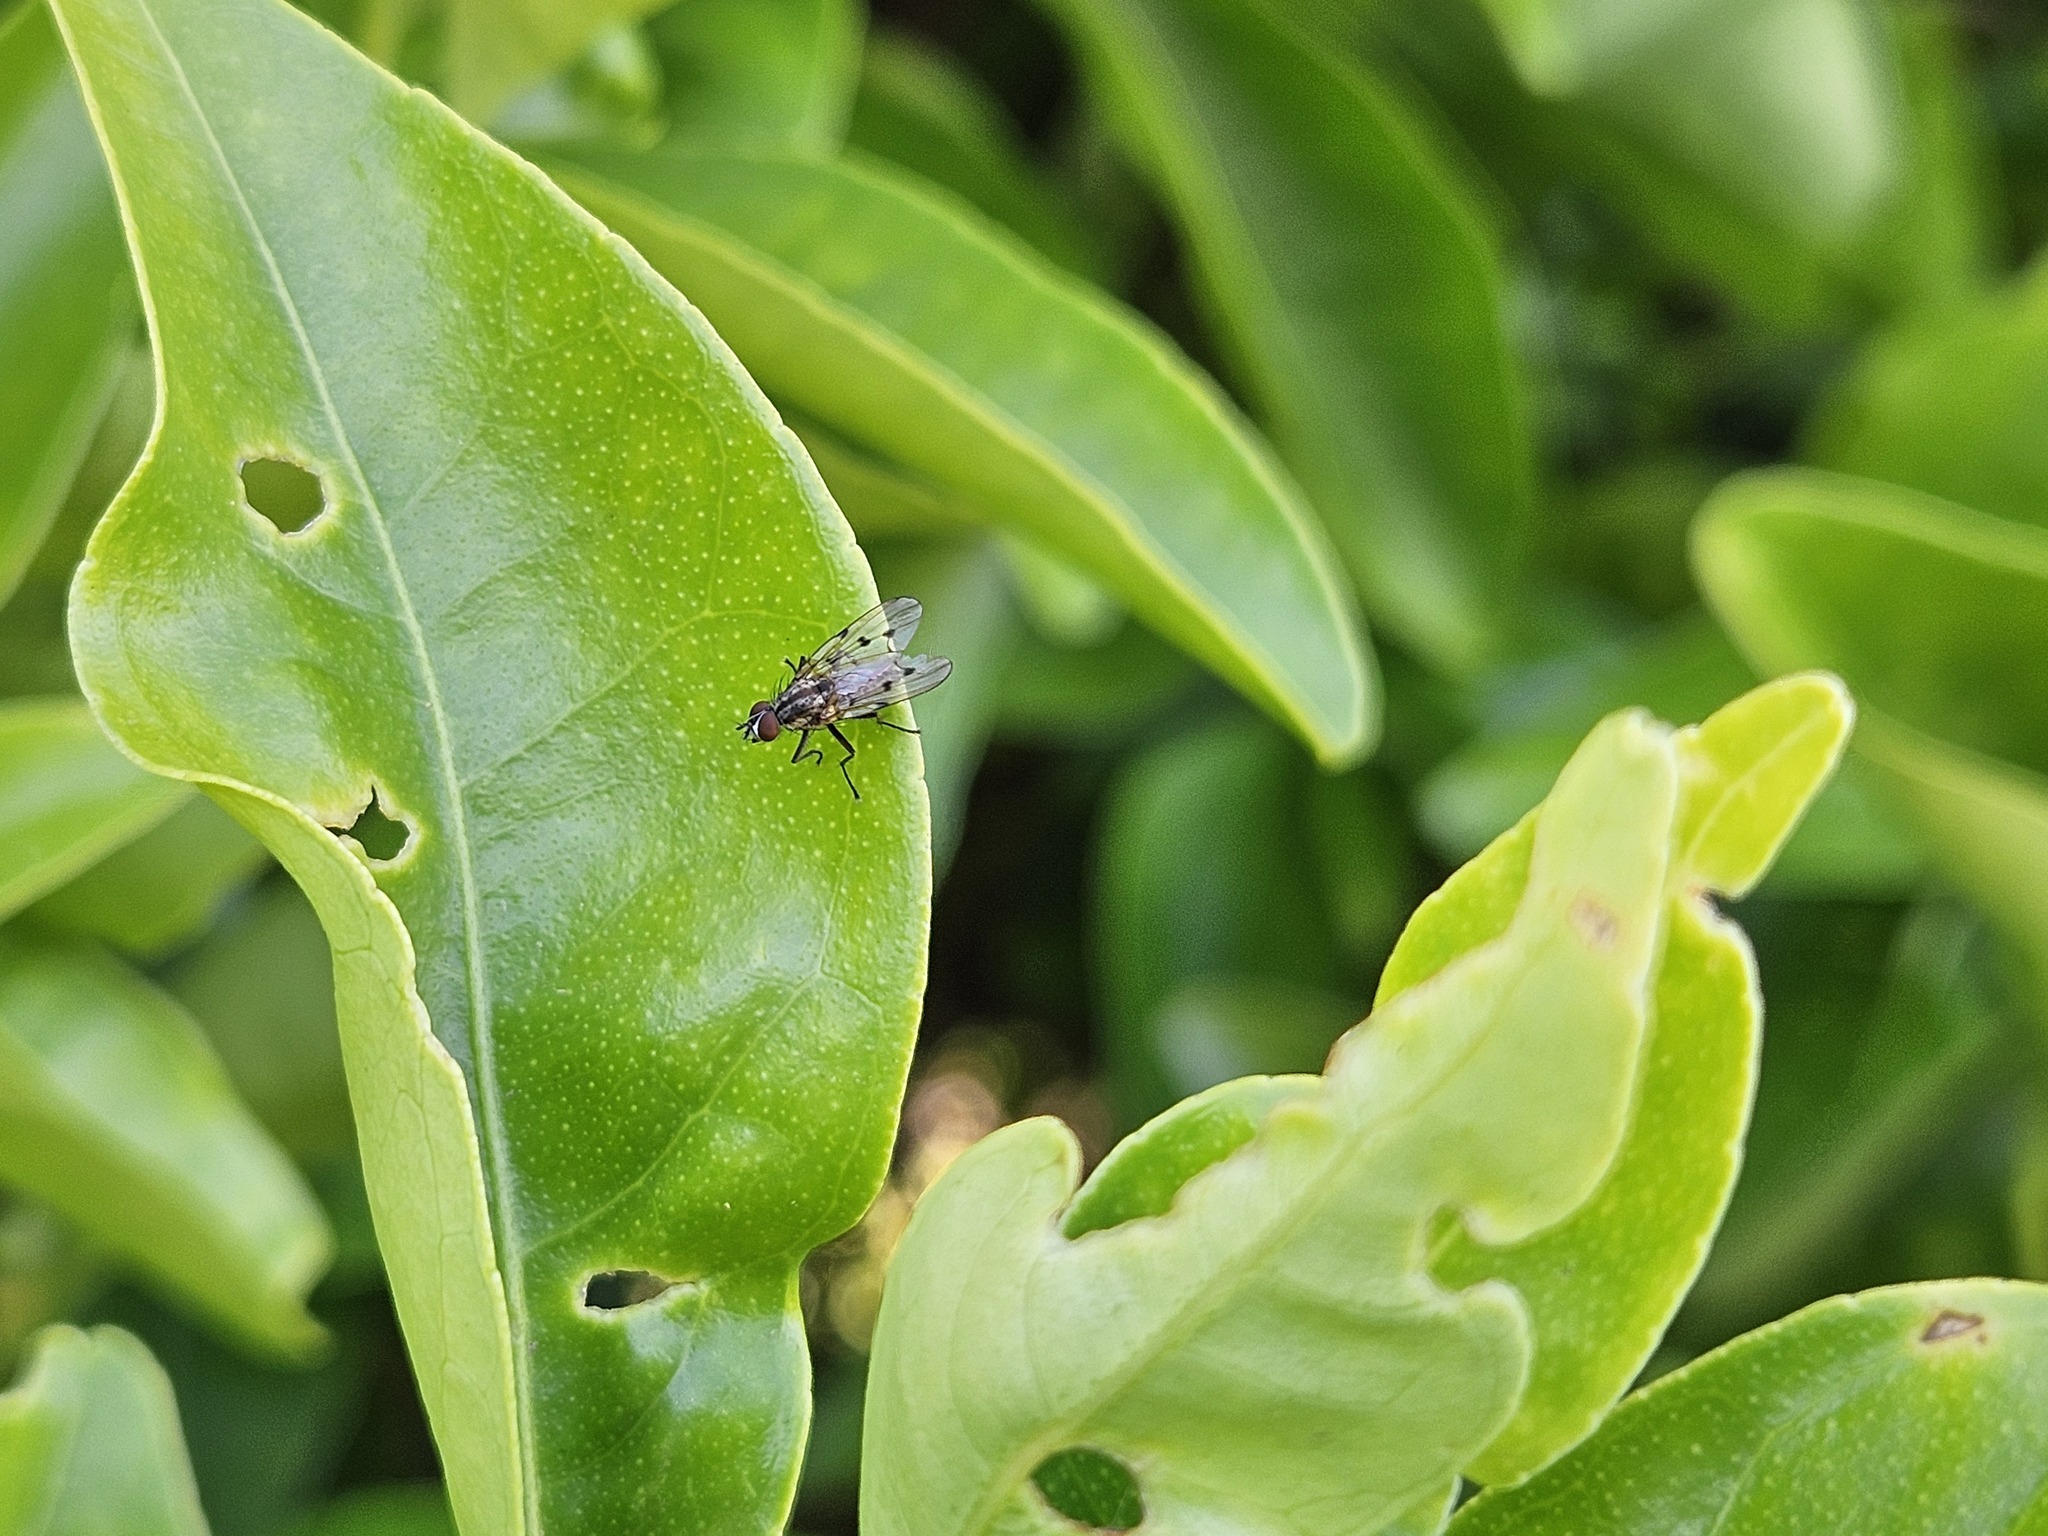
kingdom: Animalia
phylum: Arthropoda
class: Insecta
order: Diptera
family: Anthomyiidae
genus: Anthomyia
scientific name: Anthomyia punctipennis
